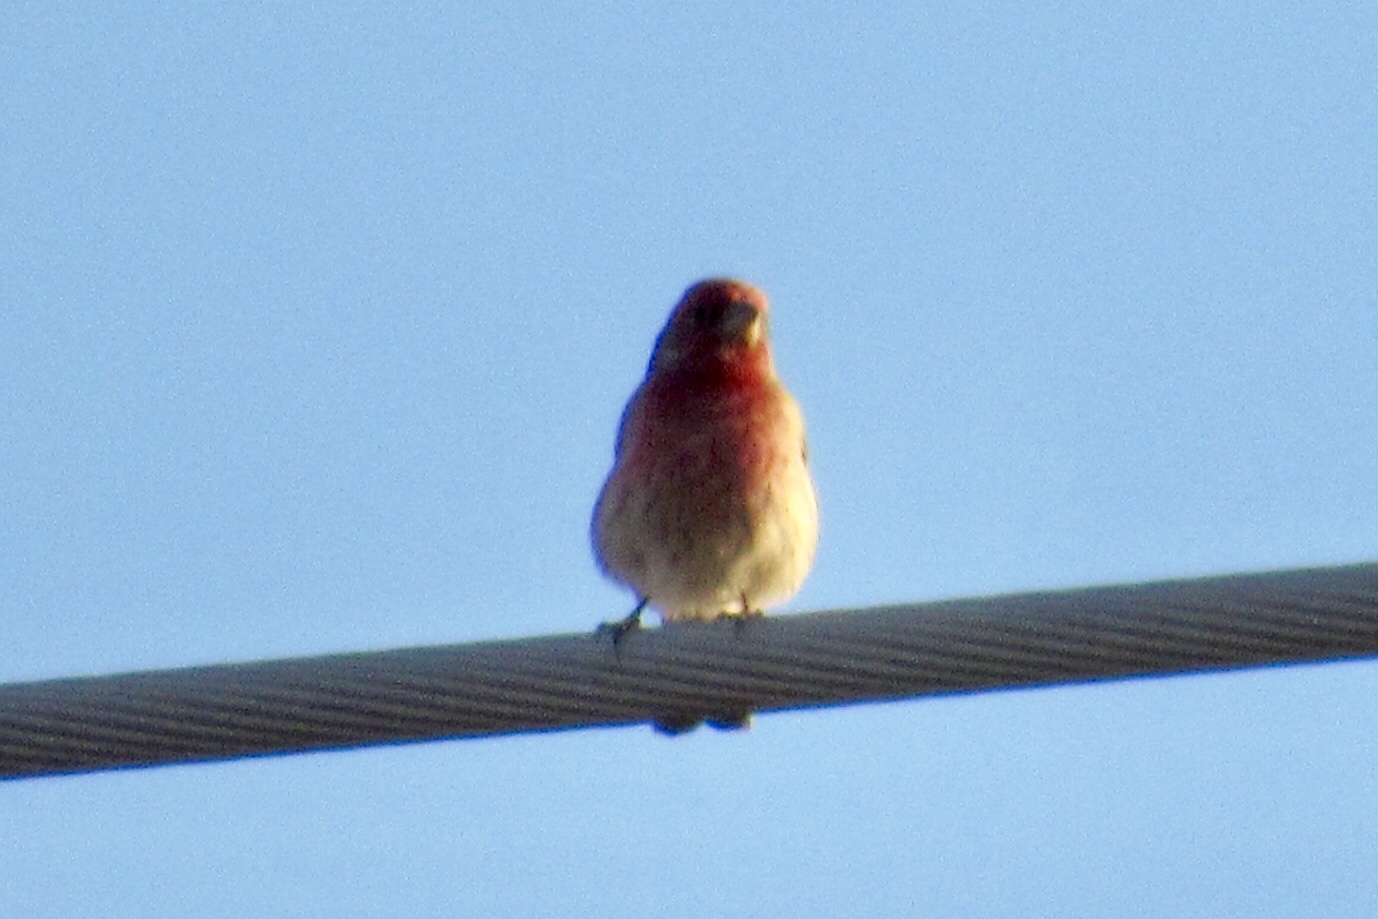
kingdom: Animalia
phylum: Chordata
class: Aves
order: Passeriformes
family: Fringillidae
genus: Haemorhous
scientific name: Haemorhous mexicanus
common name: House finch
